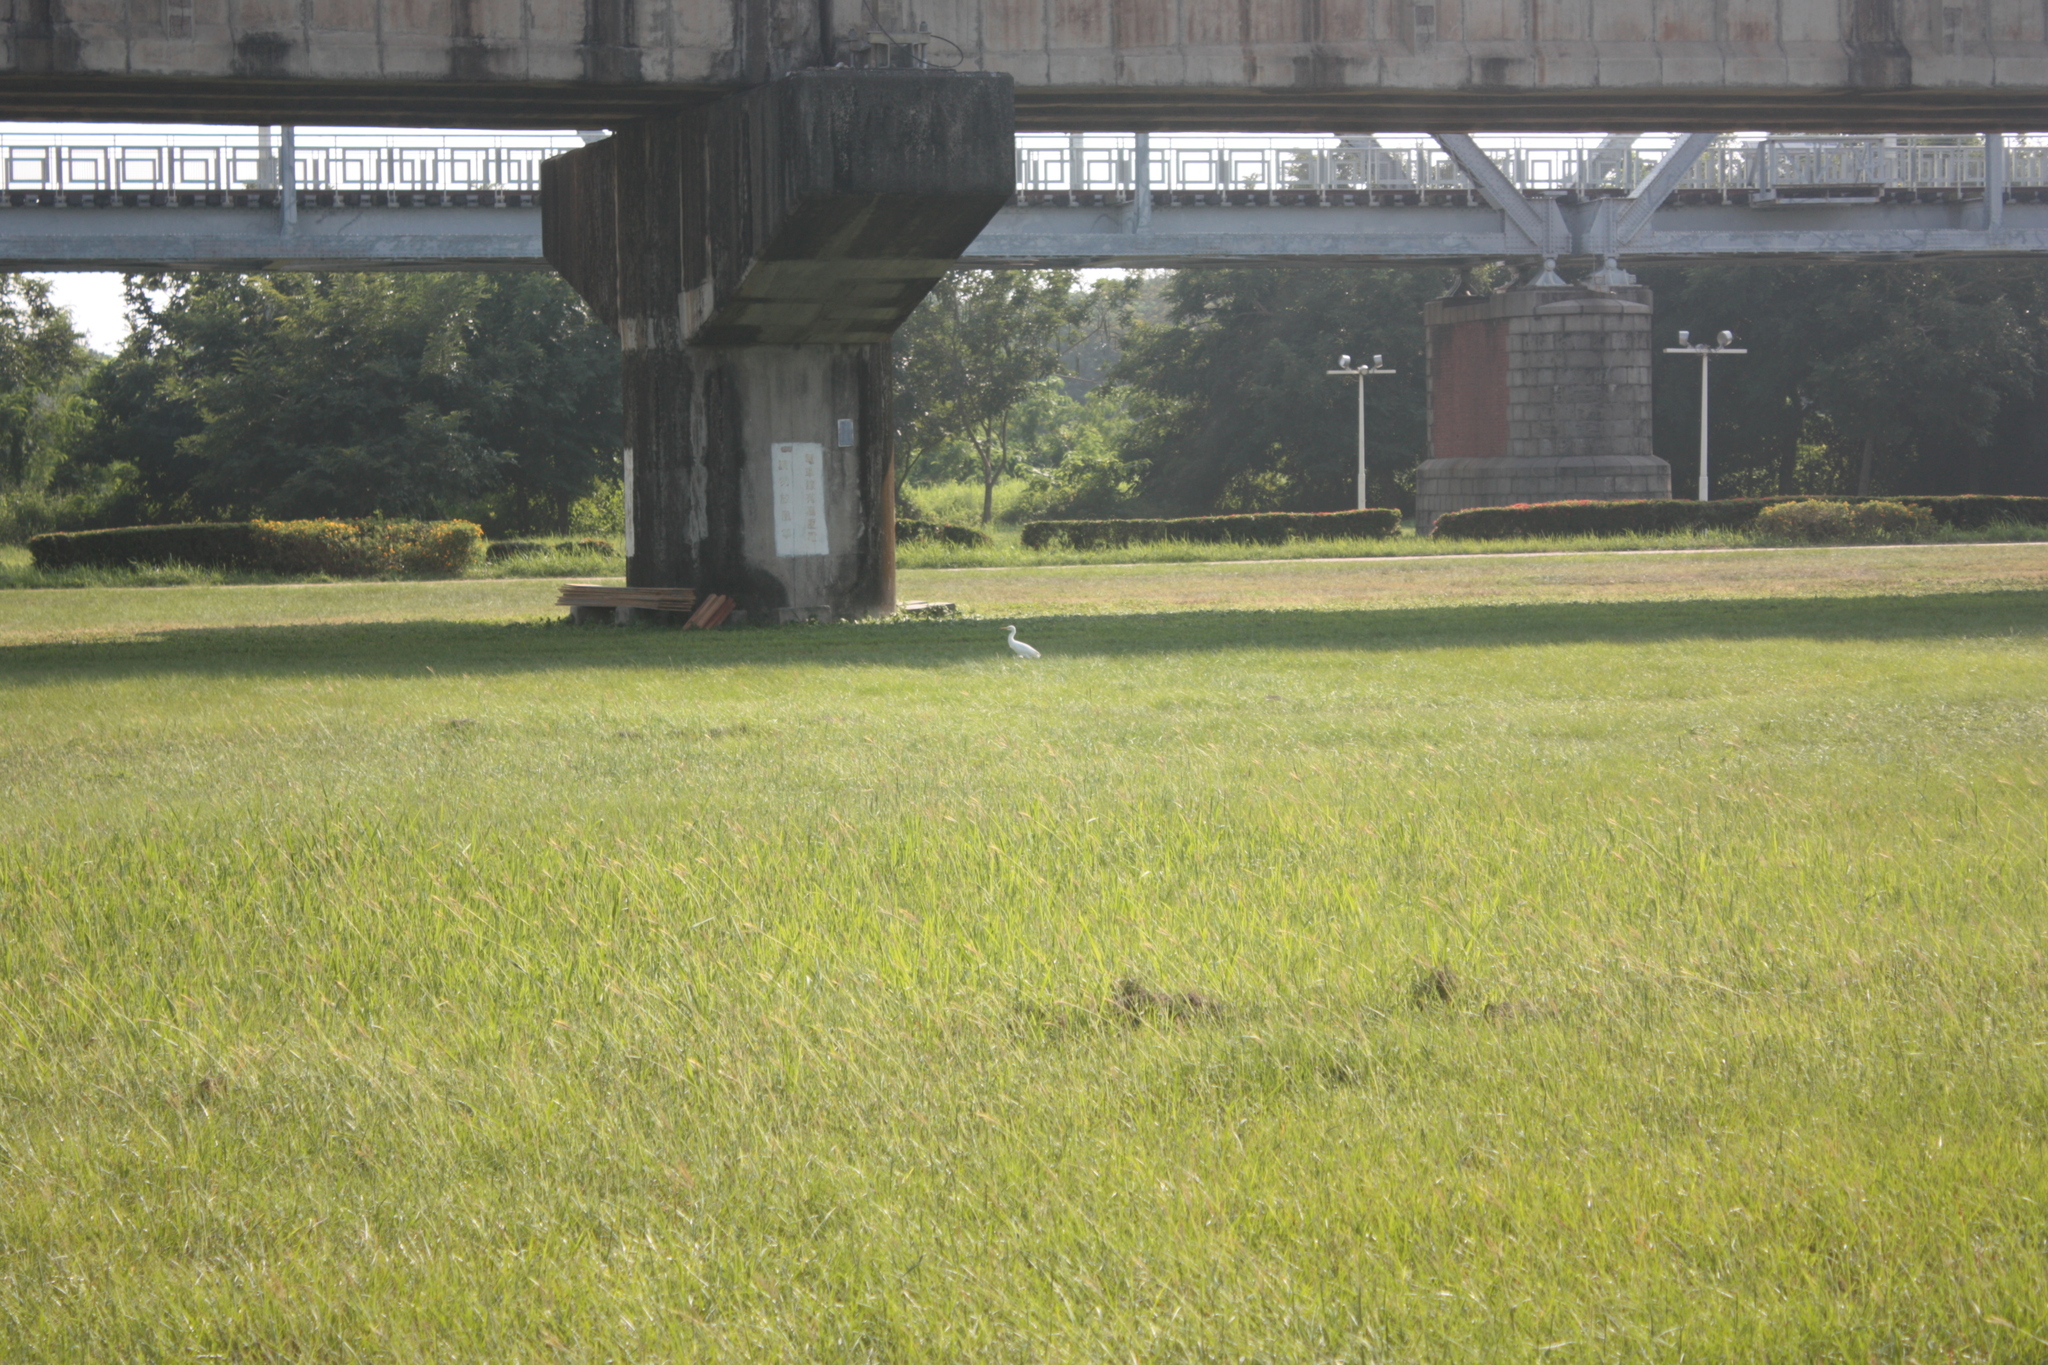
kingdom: Animalia
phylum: Chordata
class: Aves
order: Pelecaniformes
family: Ardeidae
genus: Bubulcus
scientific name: Bubulcus coromandus
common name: Eastern cattle egret
